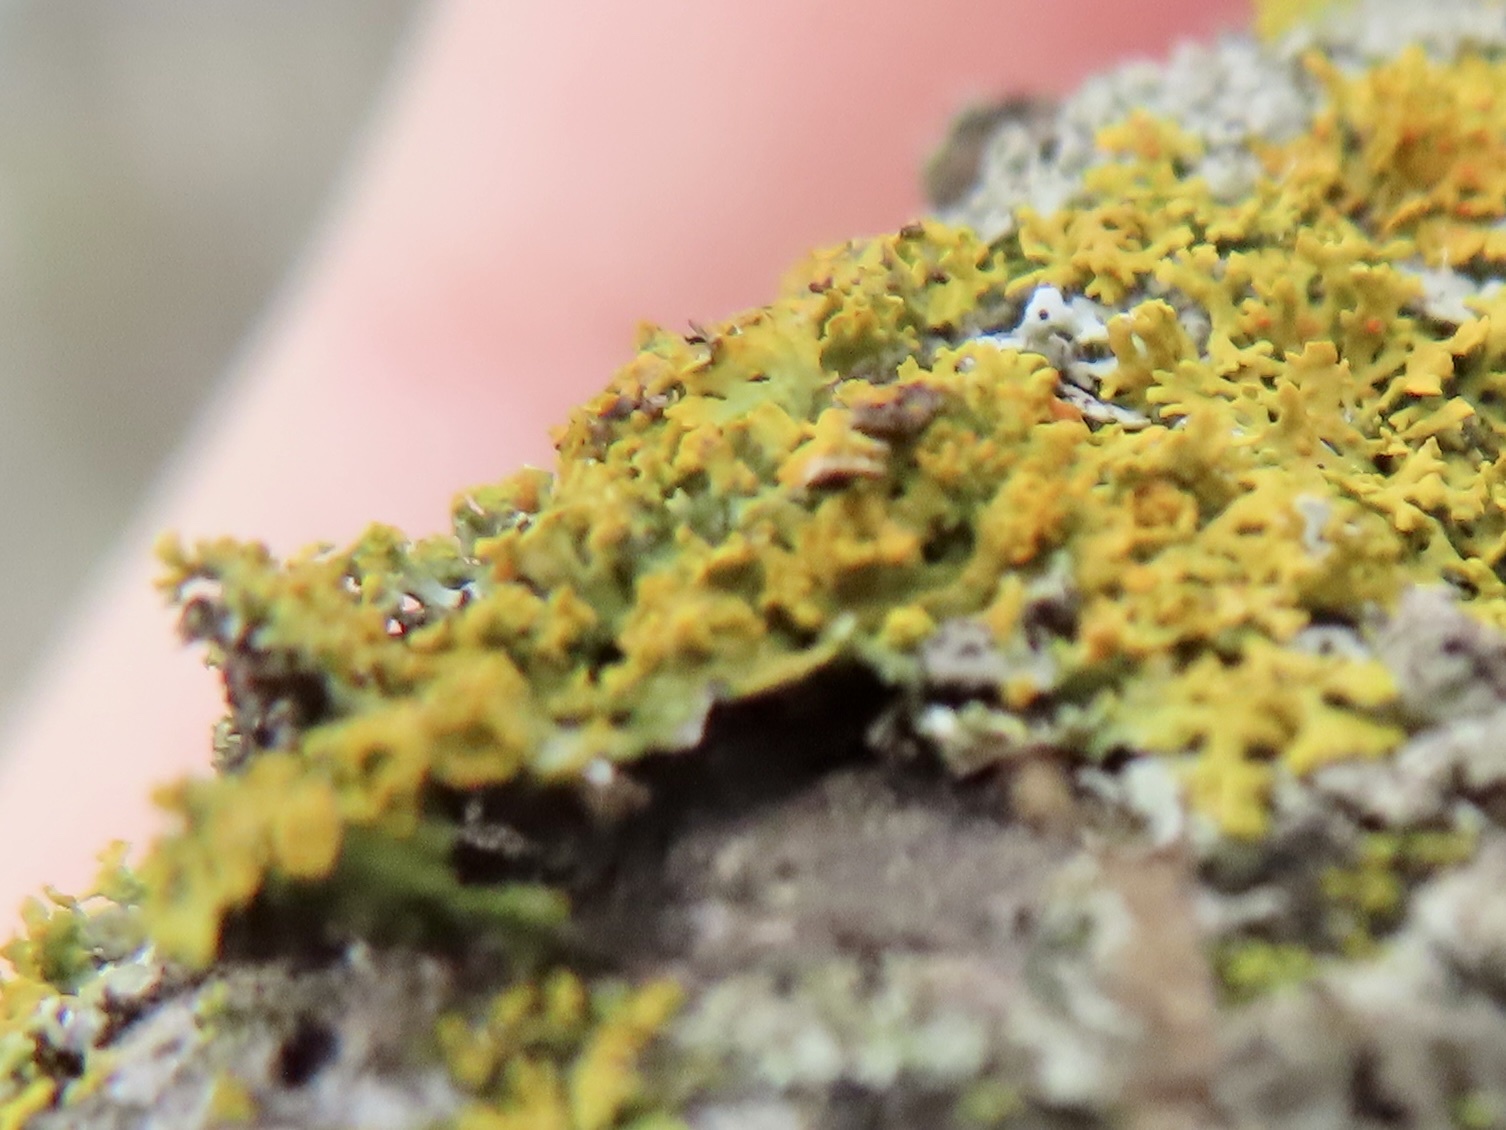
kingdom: Fungi
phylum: Ascomycota
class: Lecanoromycetes
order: Teloschistales
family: Teloschistaceae
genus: Gallowayella
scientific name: Gallowayella weberi
